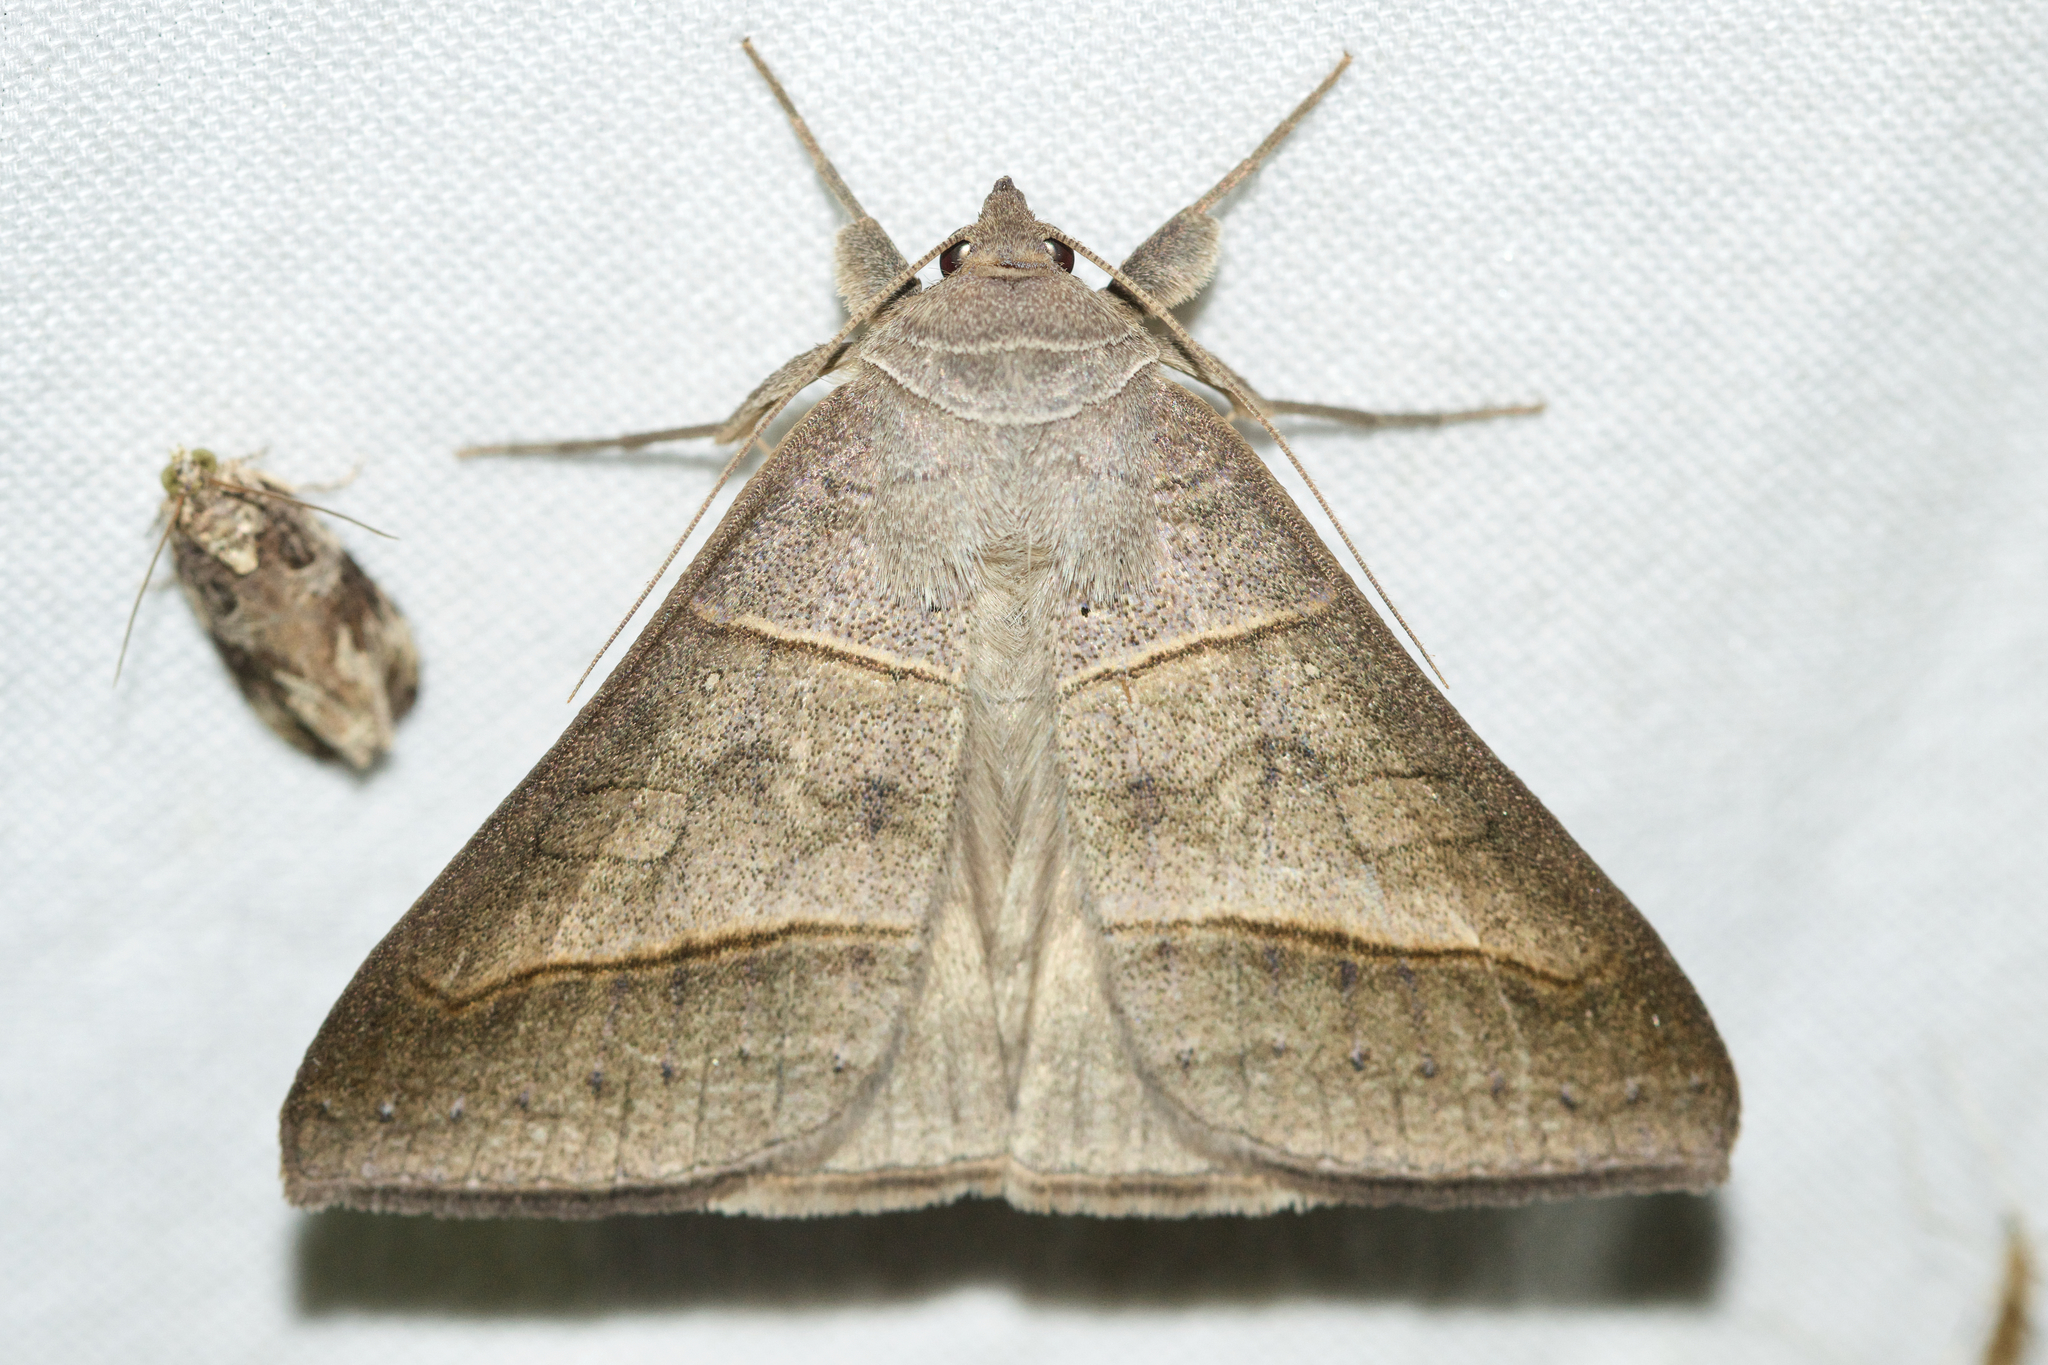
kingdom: Animalia
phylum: Arthropoda
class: Insecta
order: Lepidoptera
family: Erebidae
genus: Mocis
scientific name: Mocis texana
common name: Texas mocis moth
